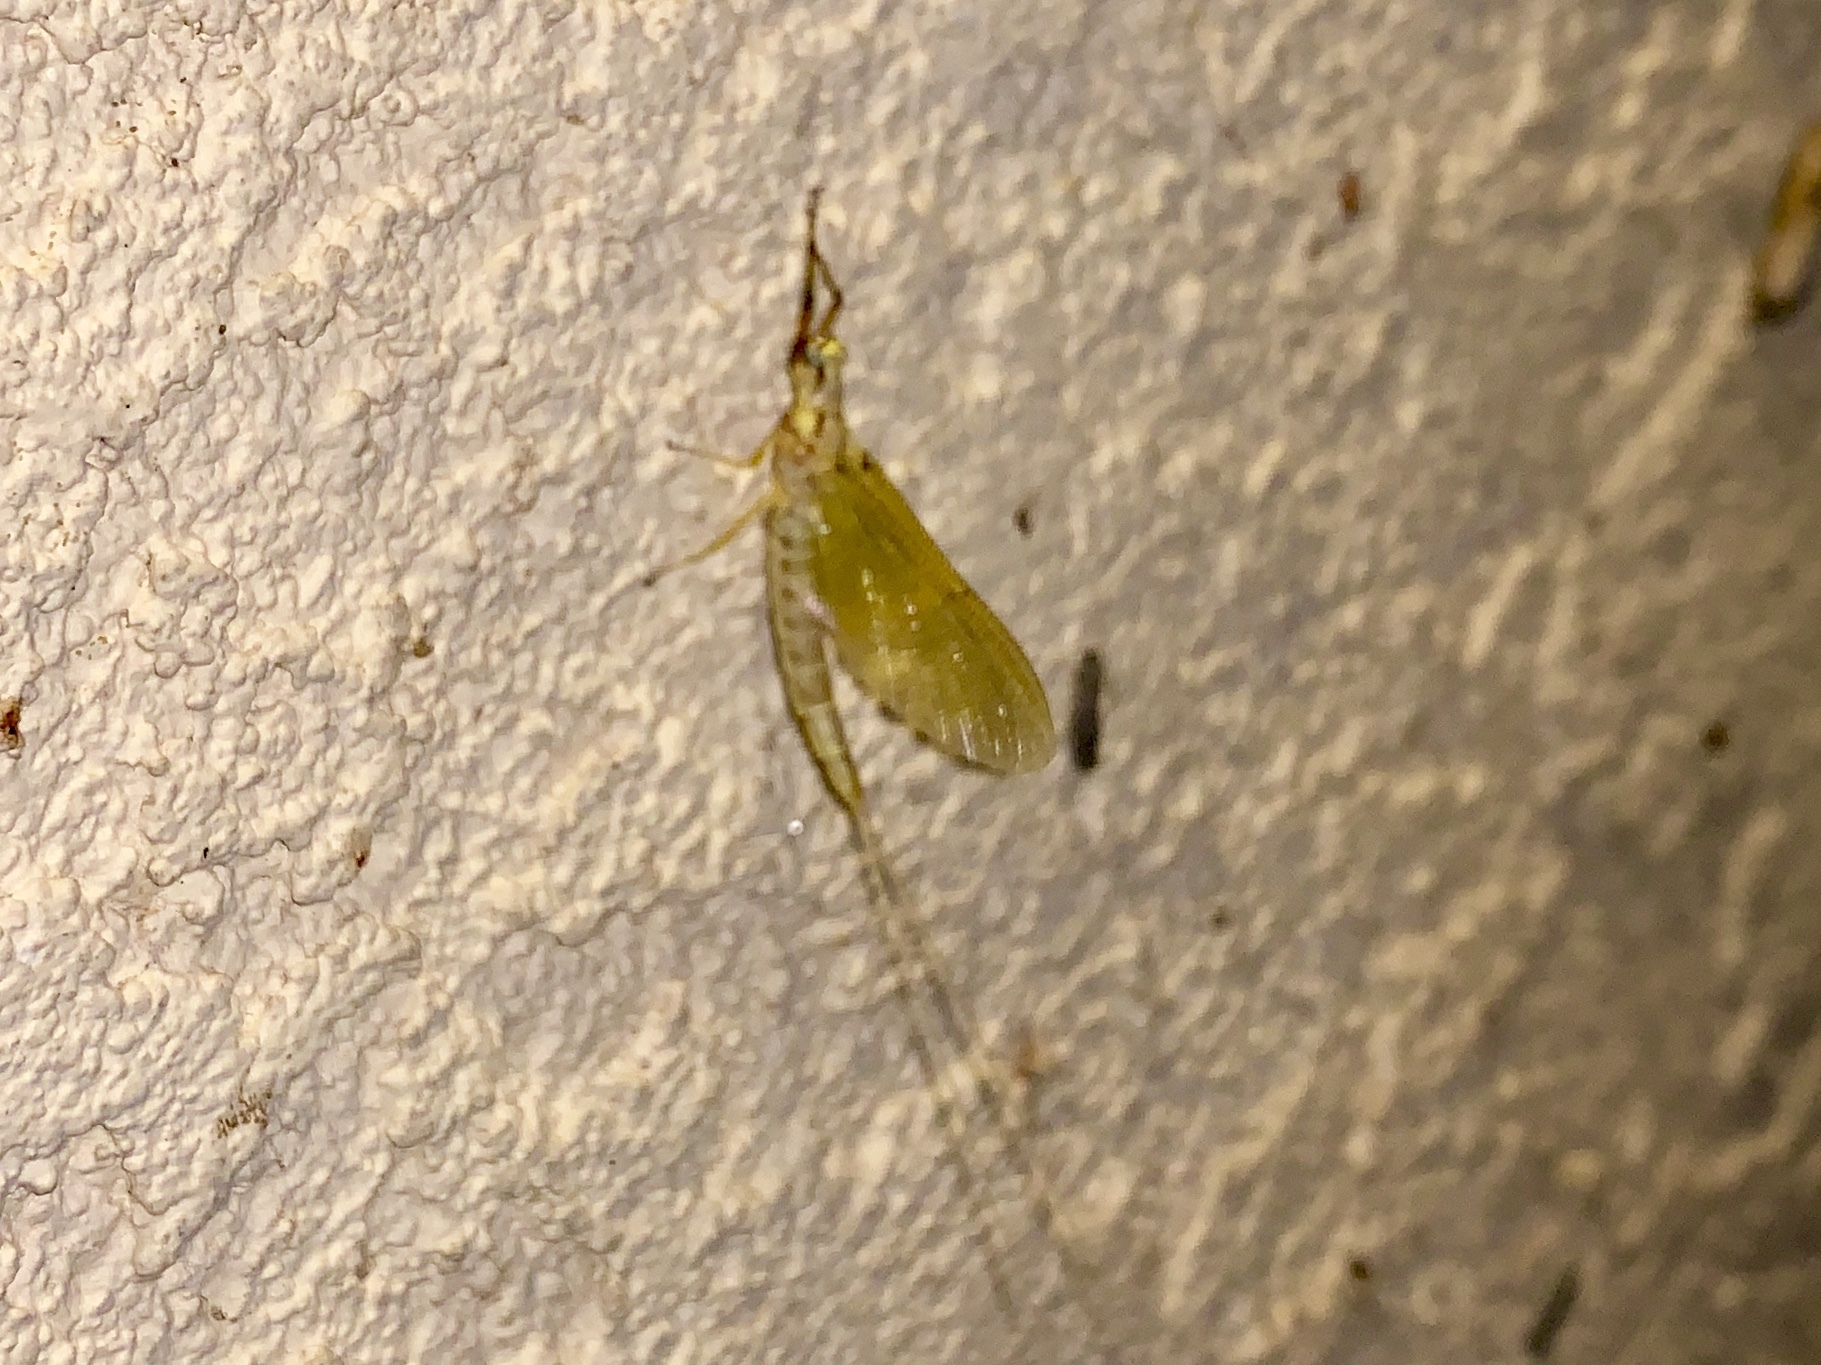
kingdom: Animalia
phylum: Arthropoda
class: Insecta
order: Ephemeroptera
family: Ephemeridae
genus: Hexagenia
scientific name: Hexagenia limbata
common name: Giant mayfly
